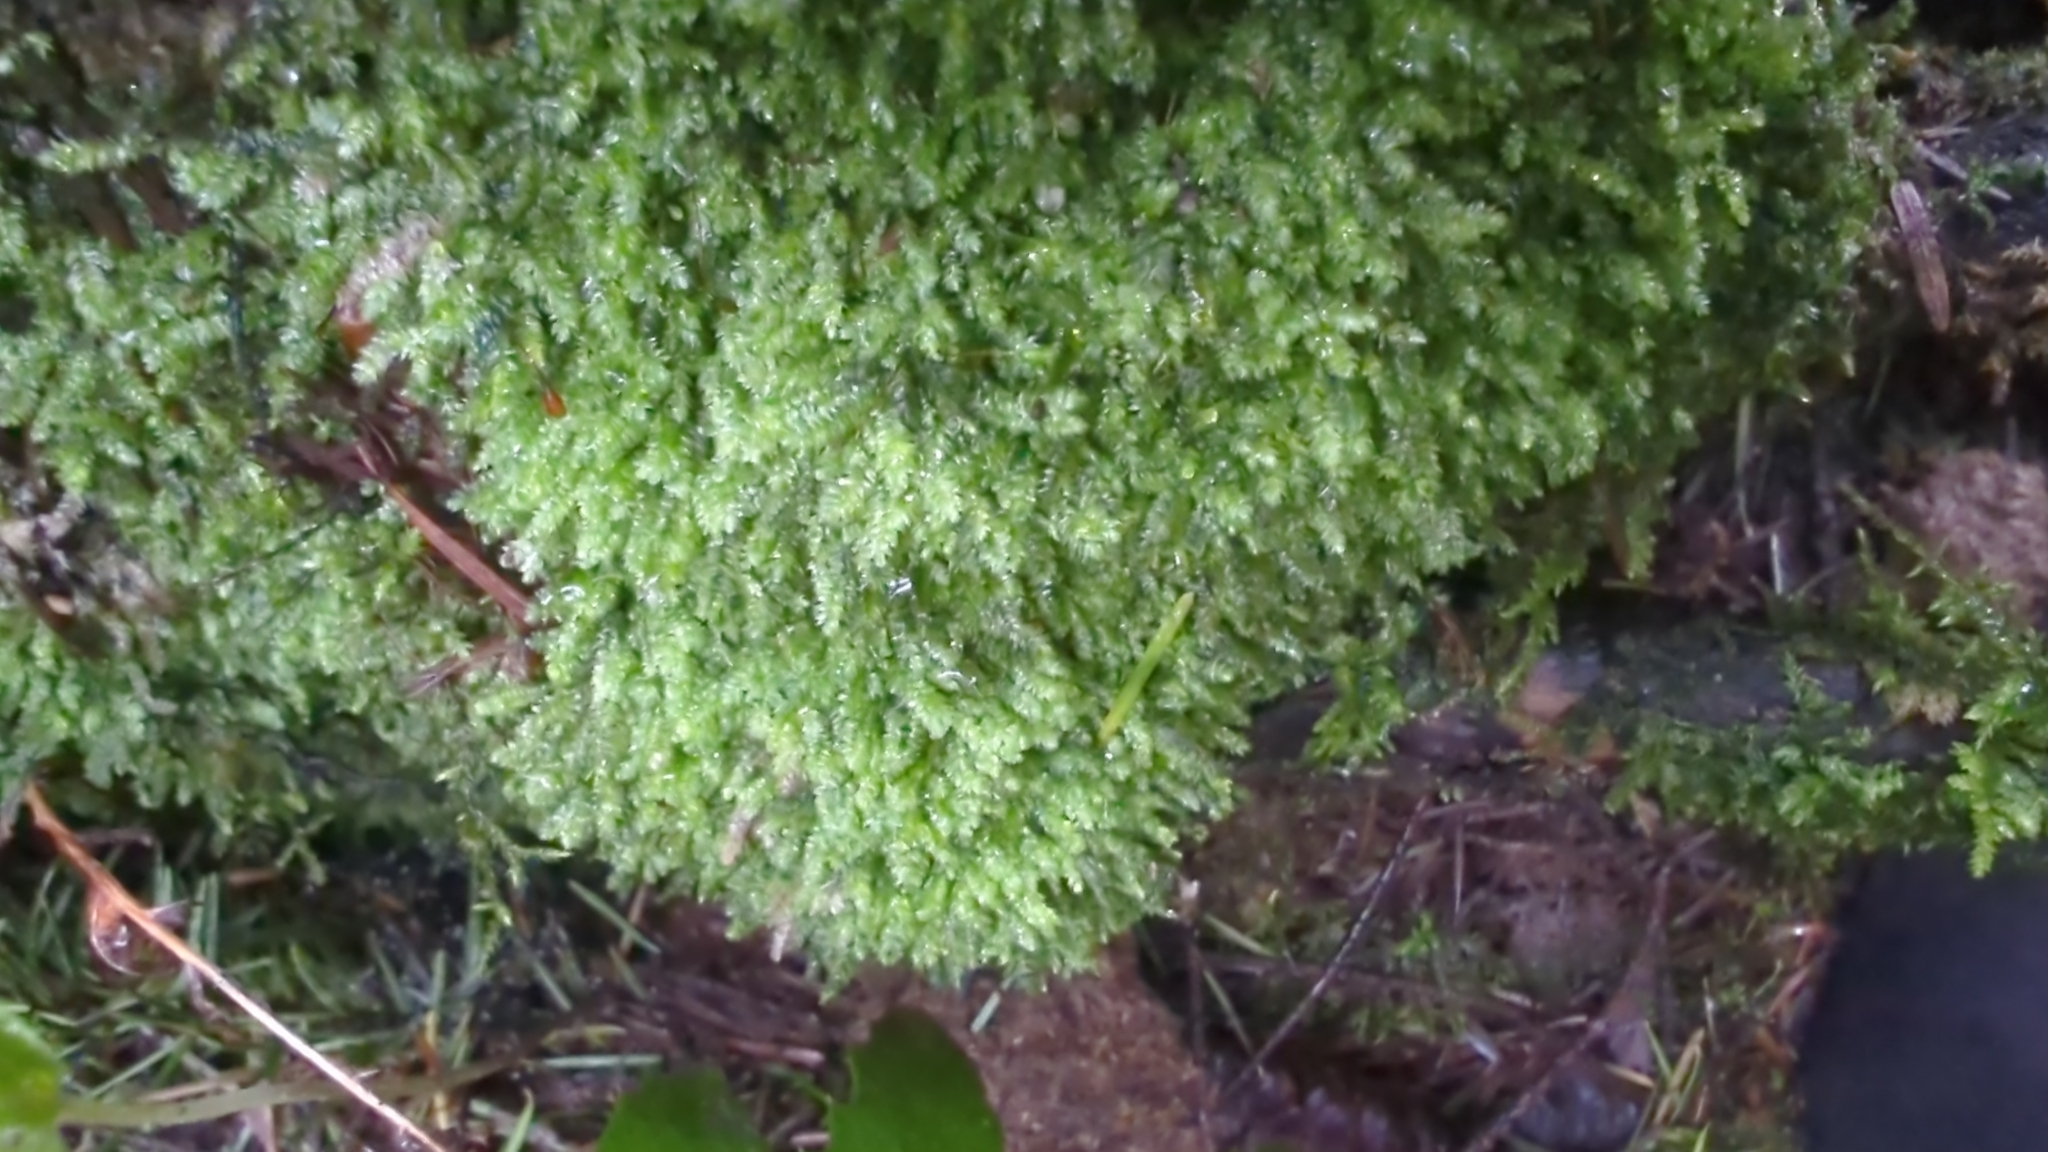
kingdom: Plantae
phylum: Bryophyta
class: Bryopsida
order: Hypnales
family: Plagiotheciaceae
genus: Pseudotaxiphyllum
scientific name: Pseudotaxiphyllum elegans
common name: Elegant silk moss
